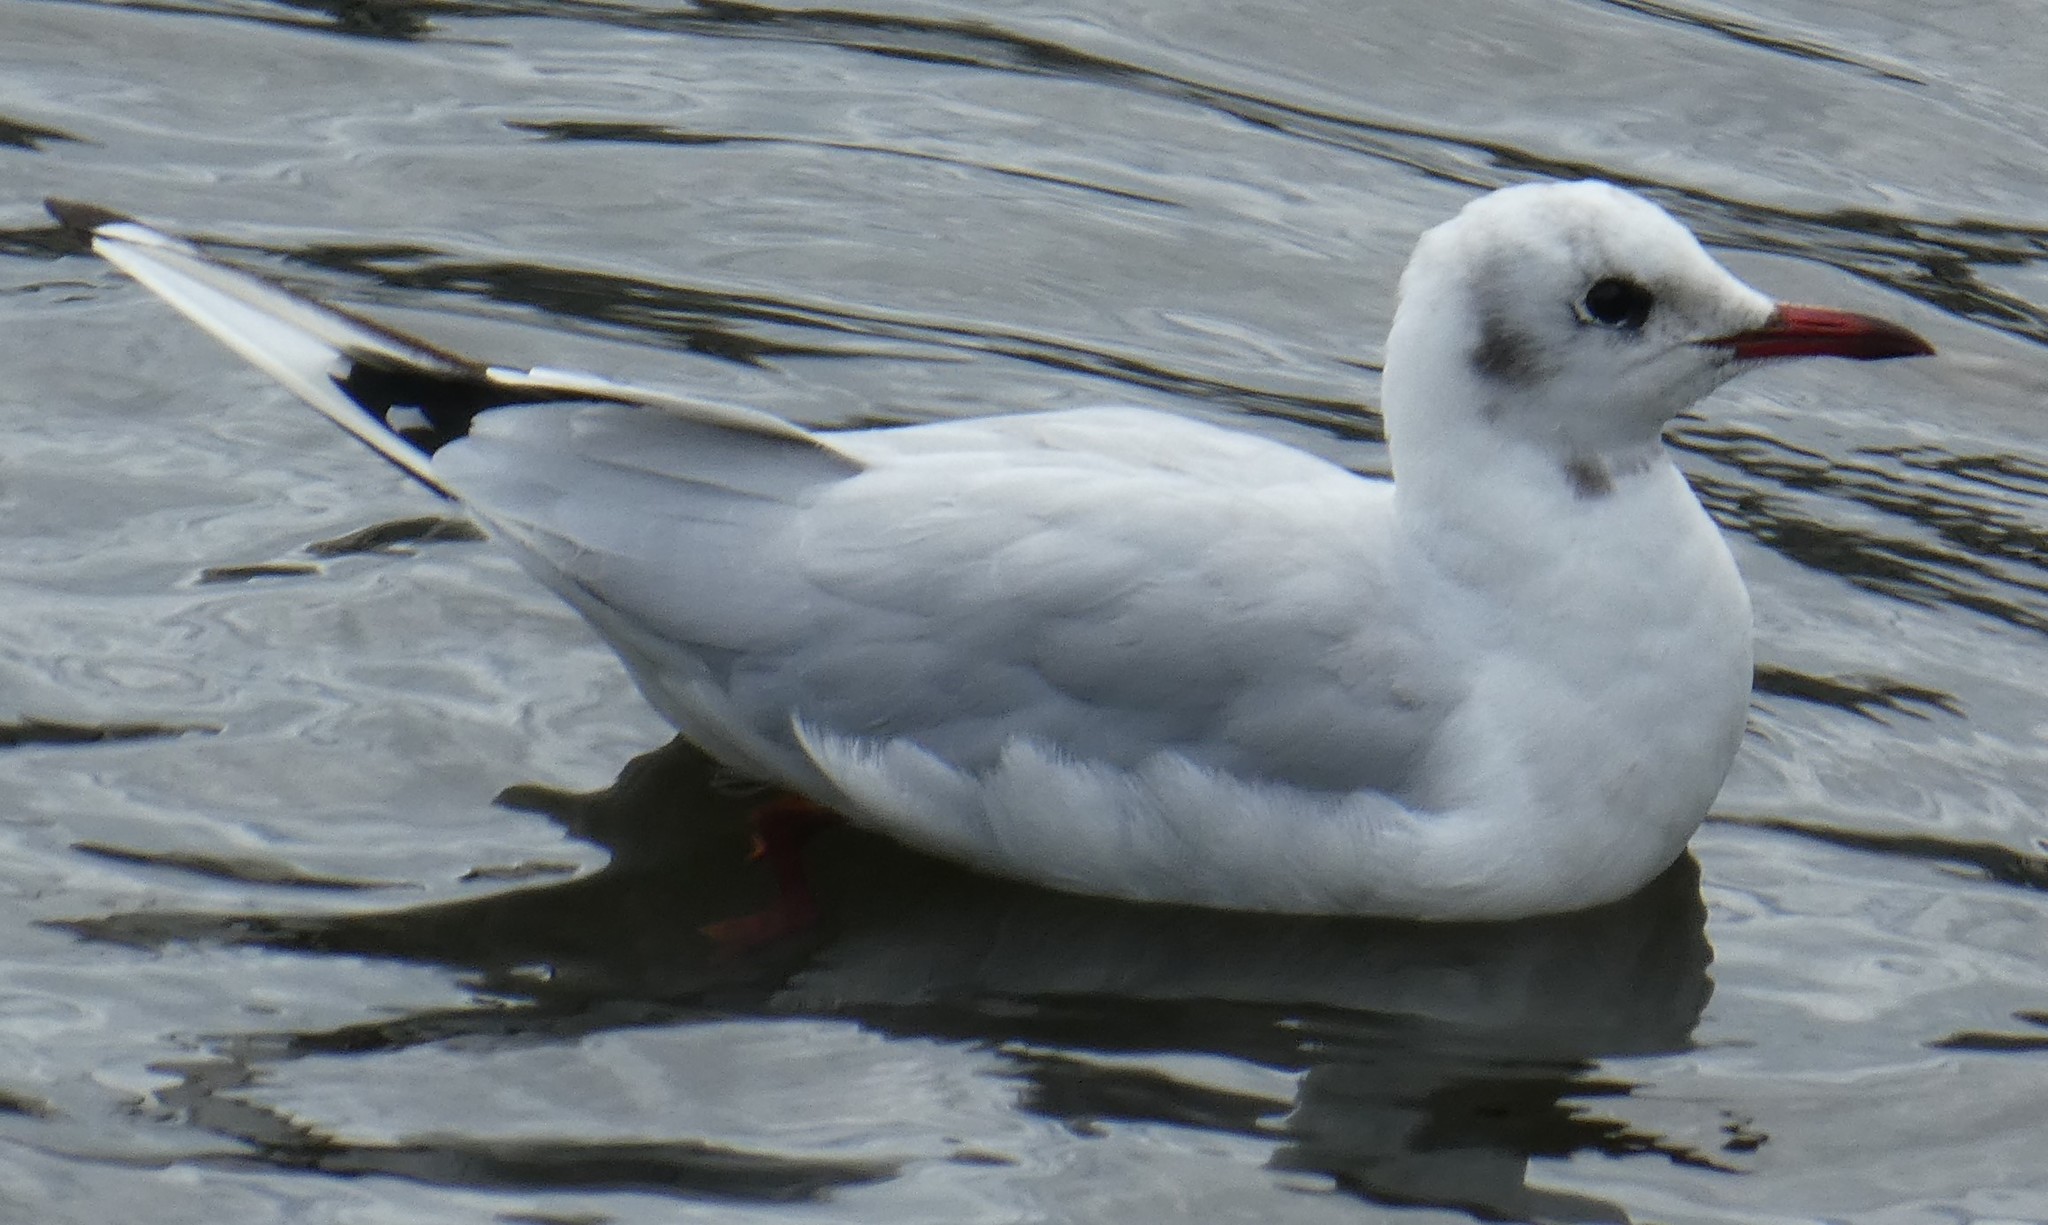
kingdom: Animalia
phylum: Chordata
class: Aves
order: Charadriiformes
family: Laridae
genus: Chroicocephalus
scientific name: Chroicocephalus ridibundus
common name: Black-headed gull
